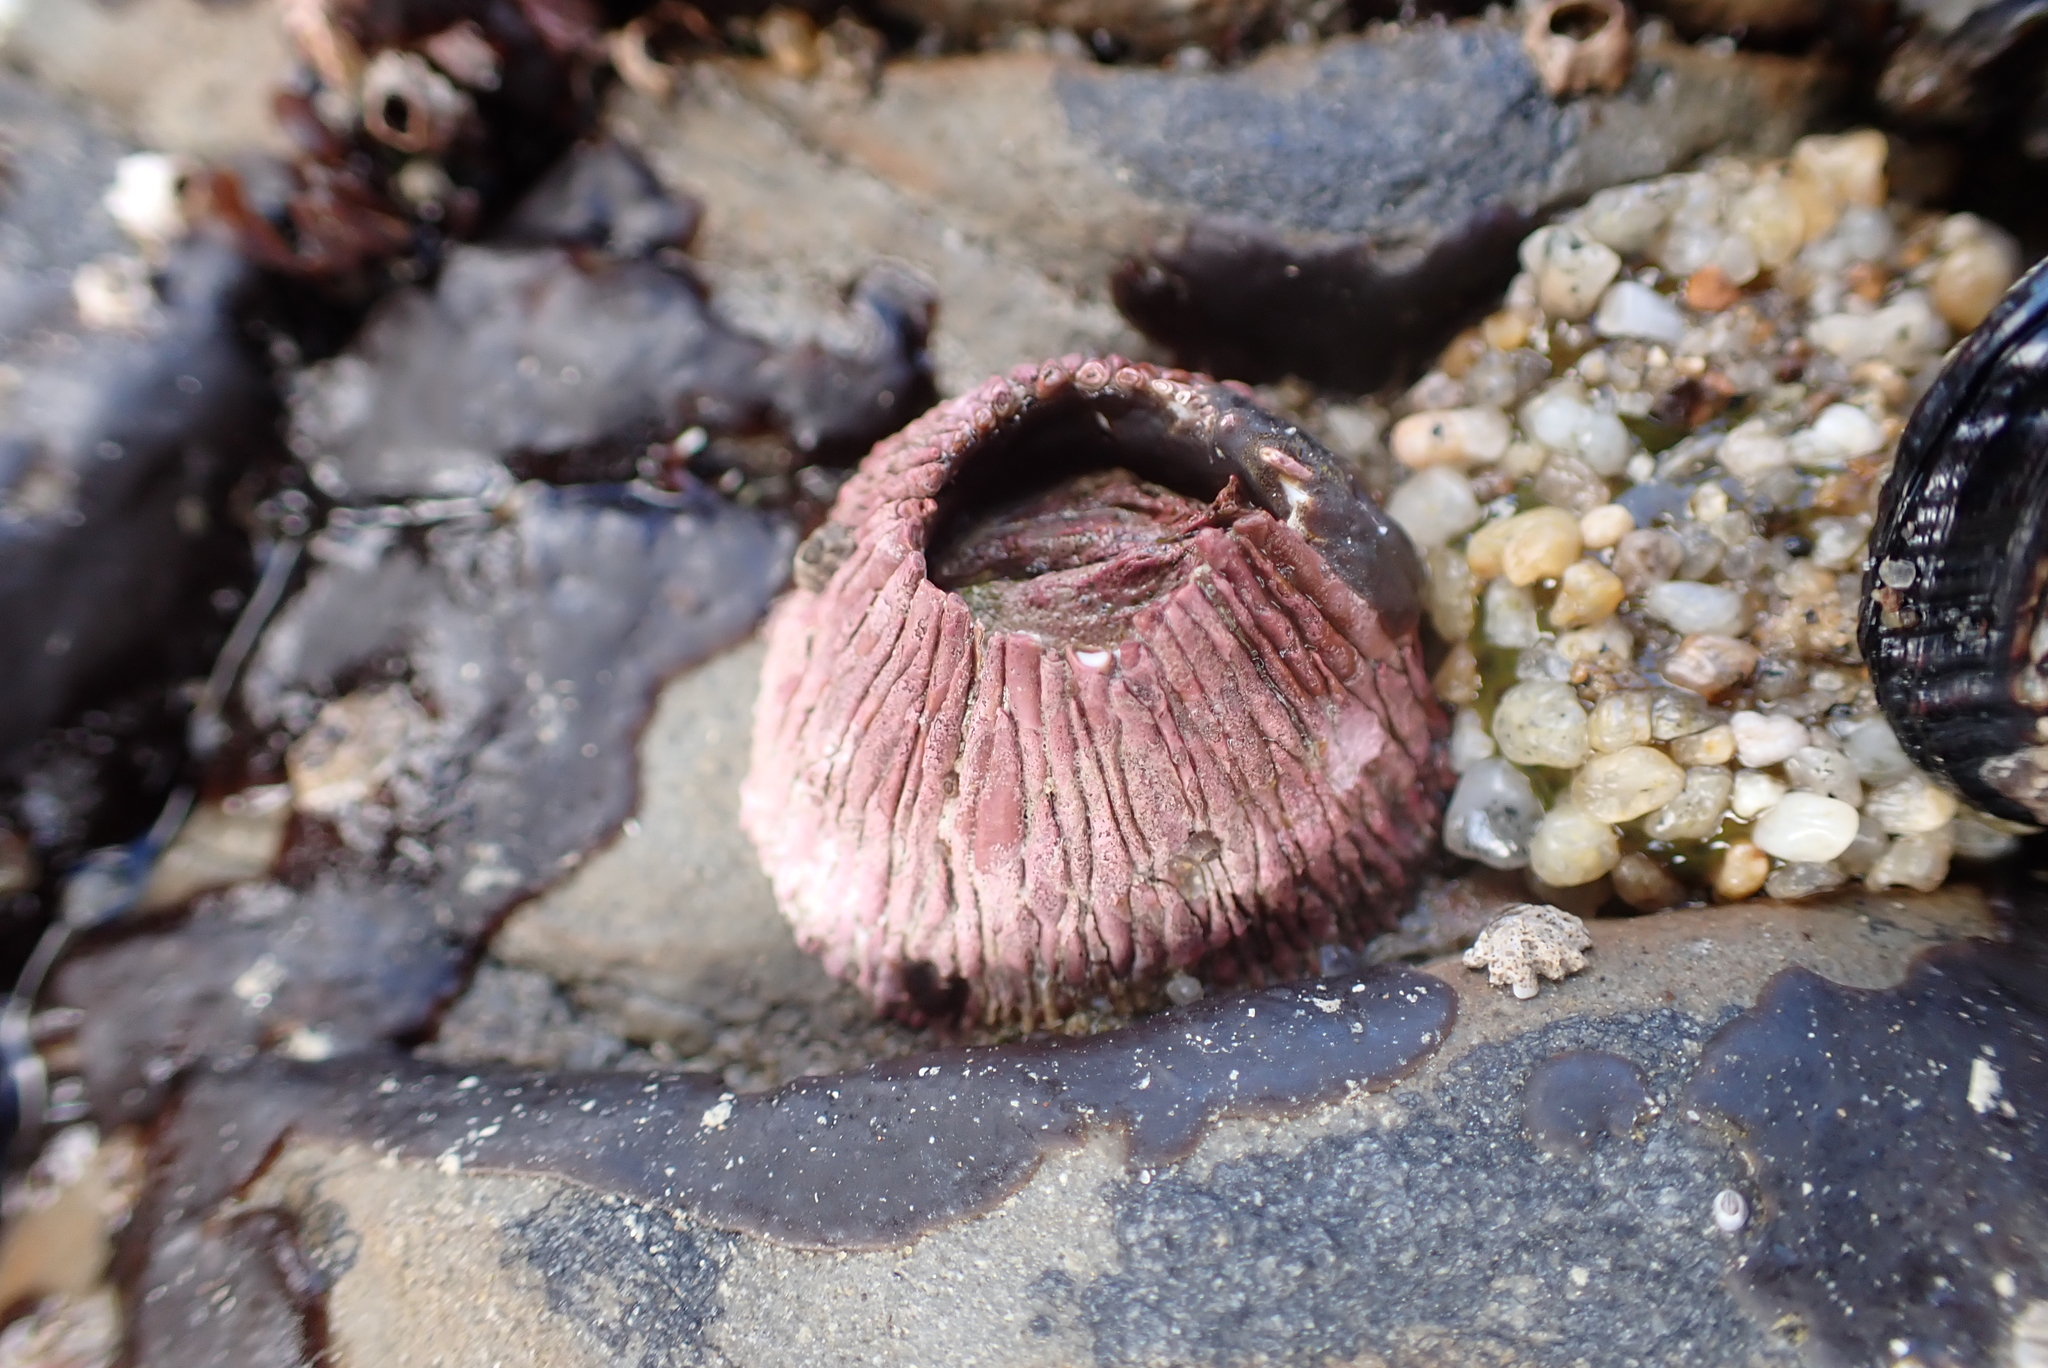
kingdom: Animalia
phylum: Arthropoda
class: Maxillopoda
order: Sessilia
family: Tetraclitidae
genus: Tetraclita
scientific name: Tetraclita rubescens
